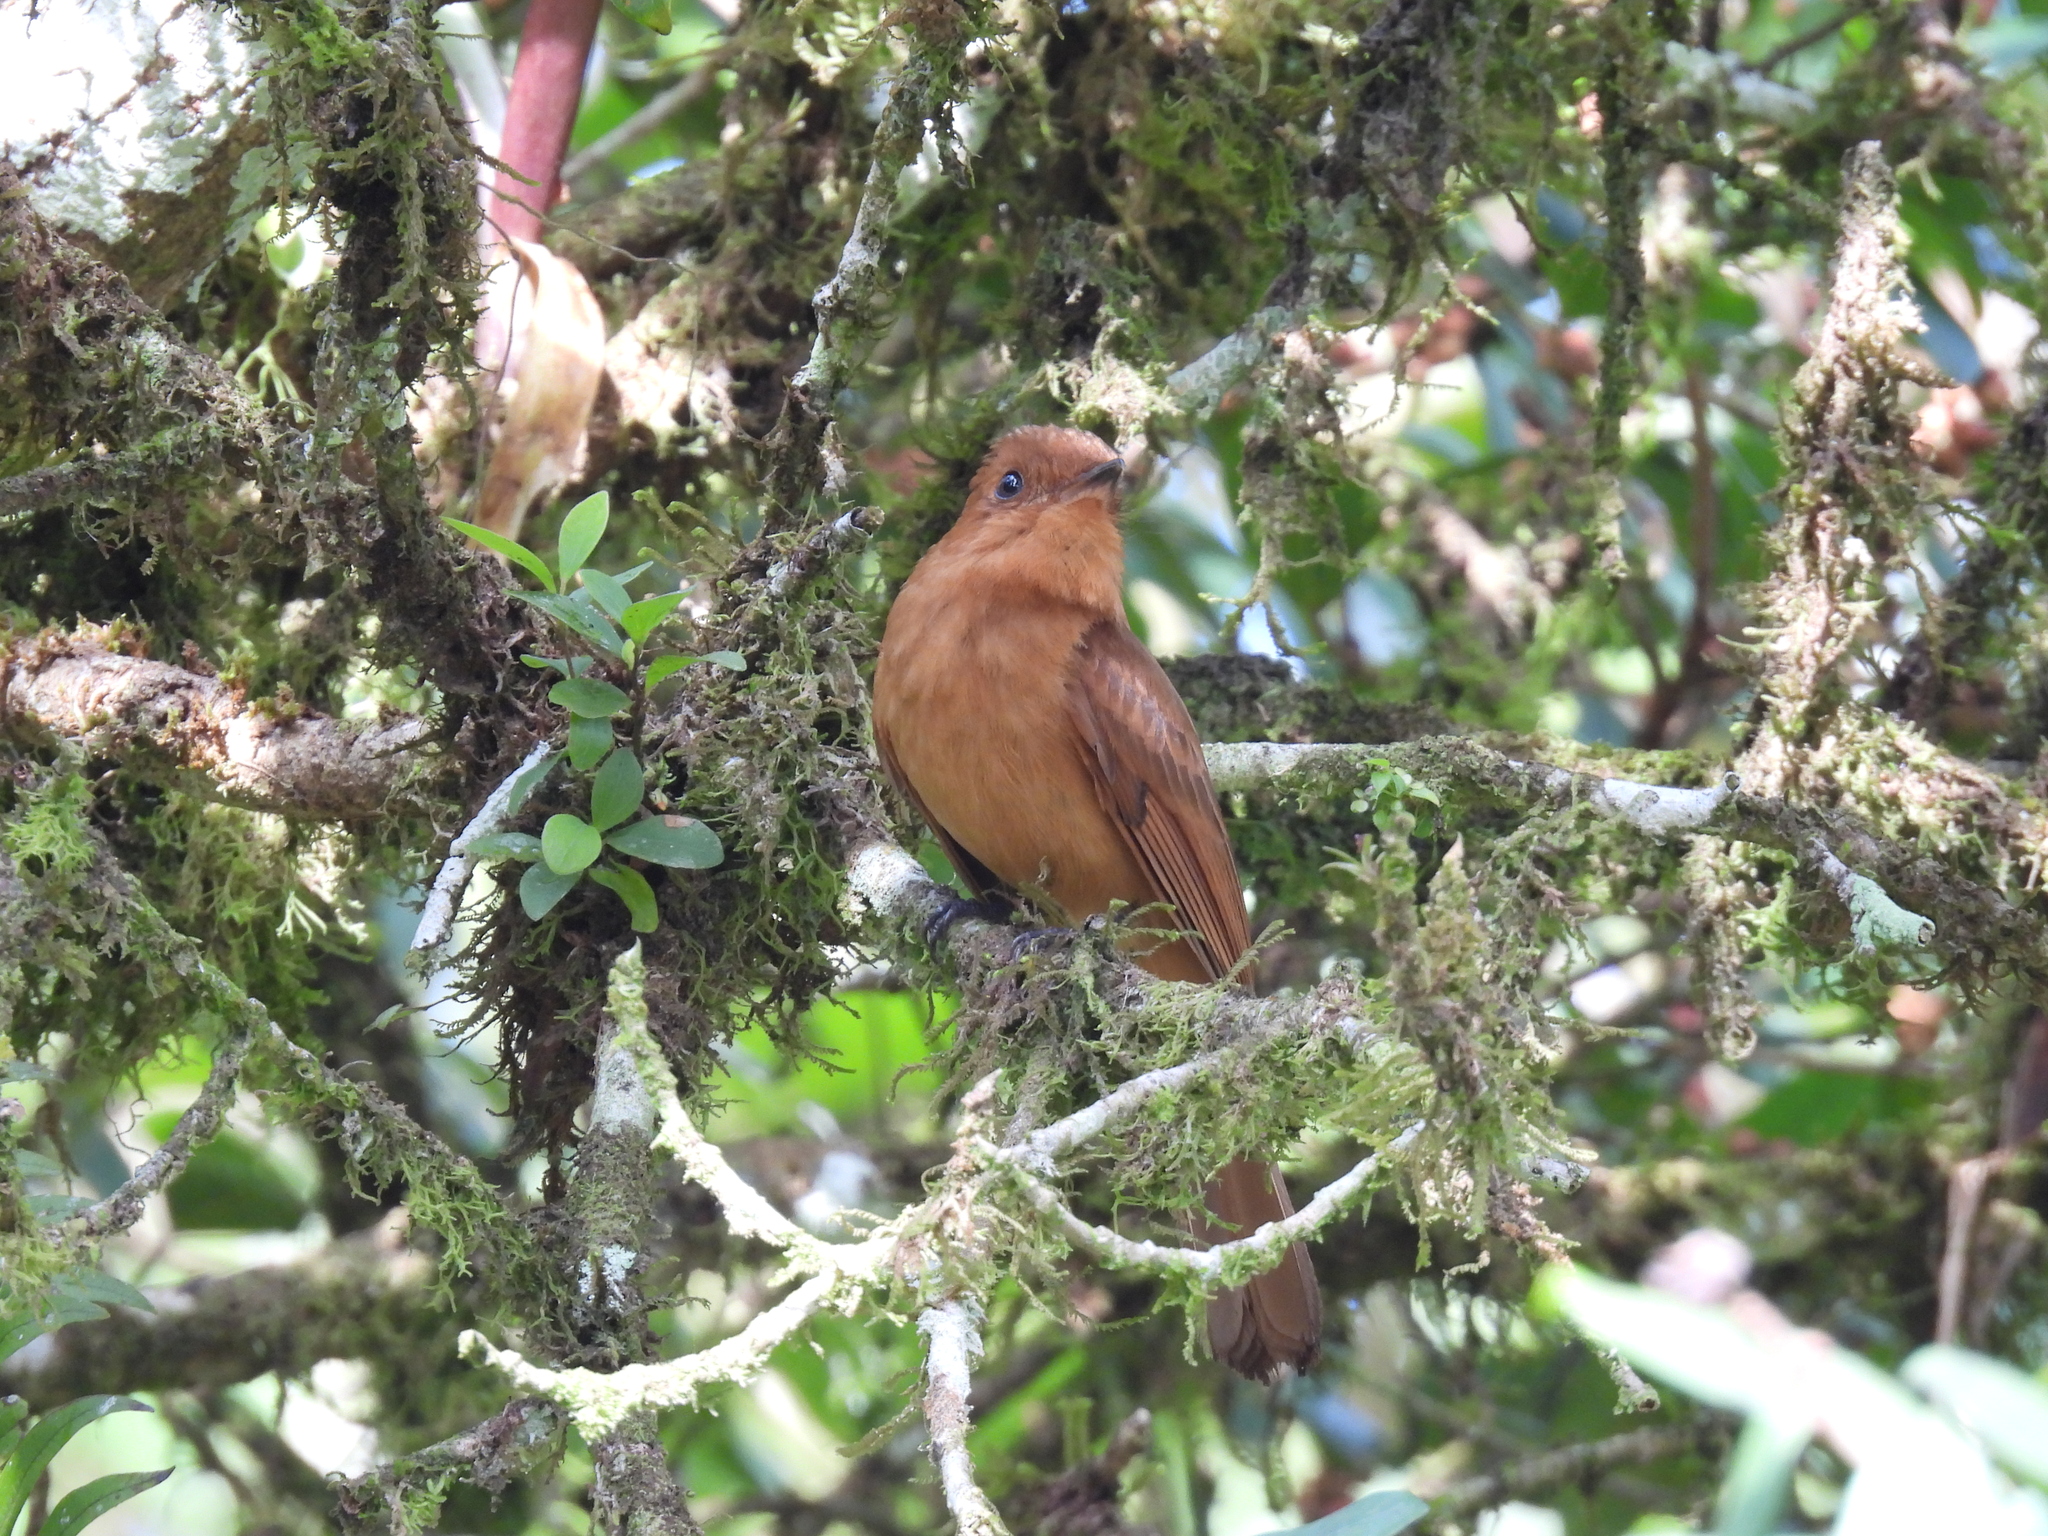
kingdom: Animalia
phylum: Chordata
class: Aves
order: Passeriformes
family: Tyrannidae
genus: Rhytipterna
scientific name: Rhytipterna holerythra
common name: Rufous mourner
